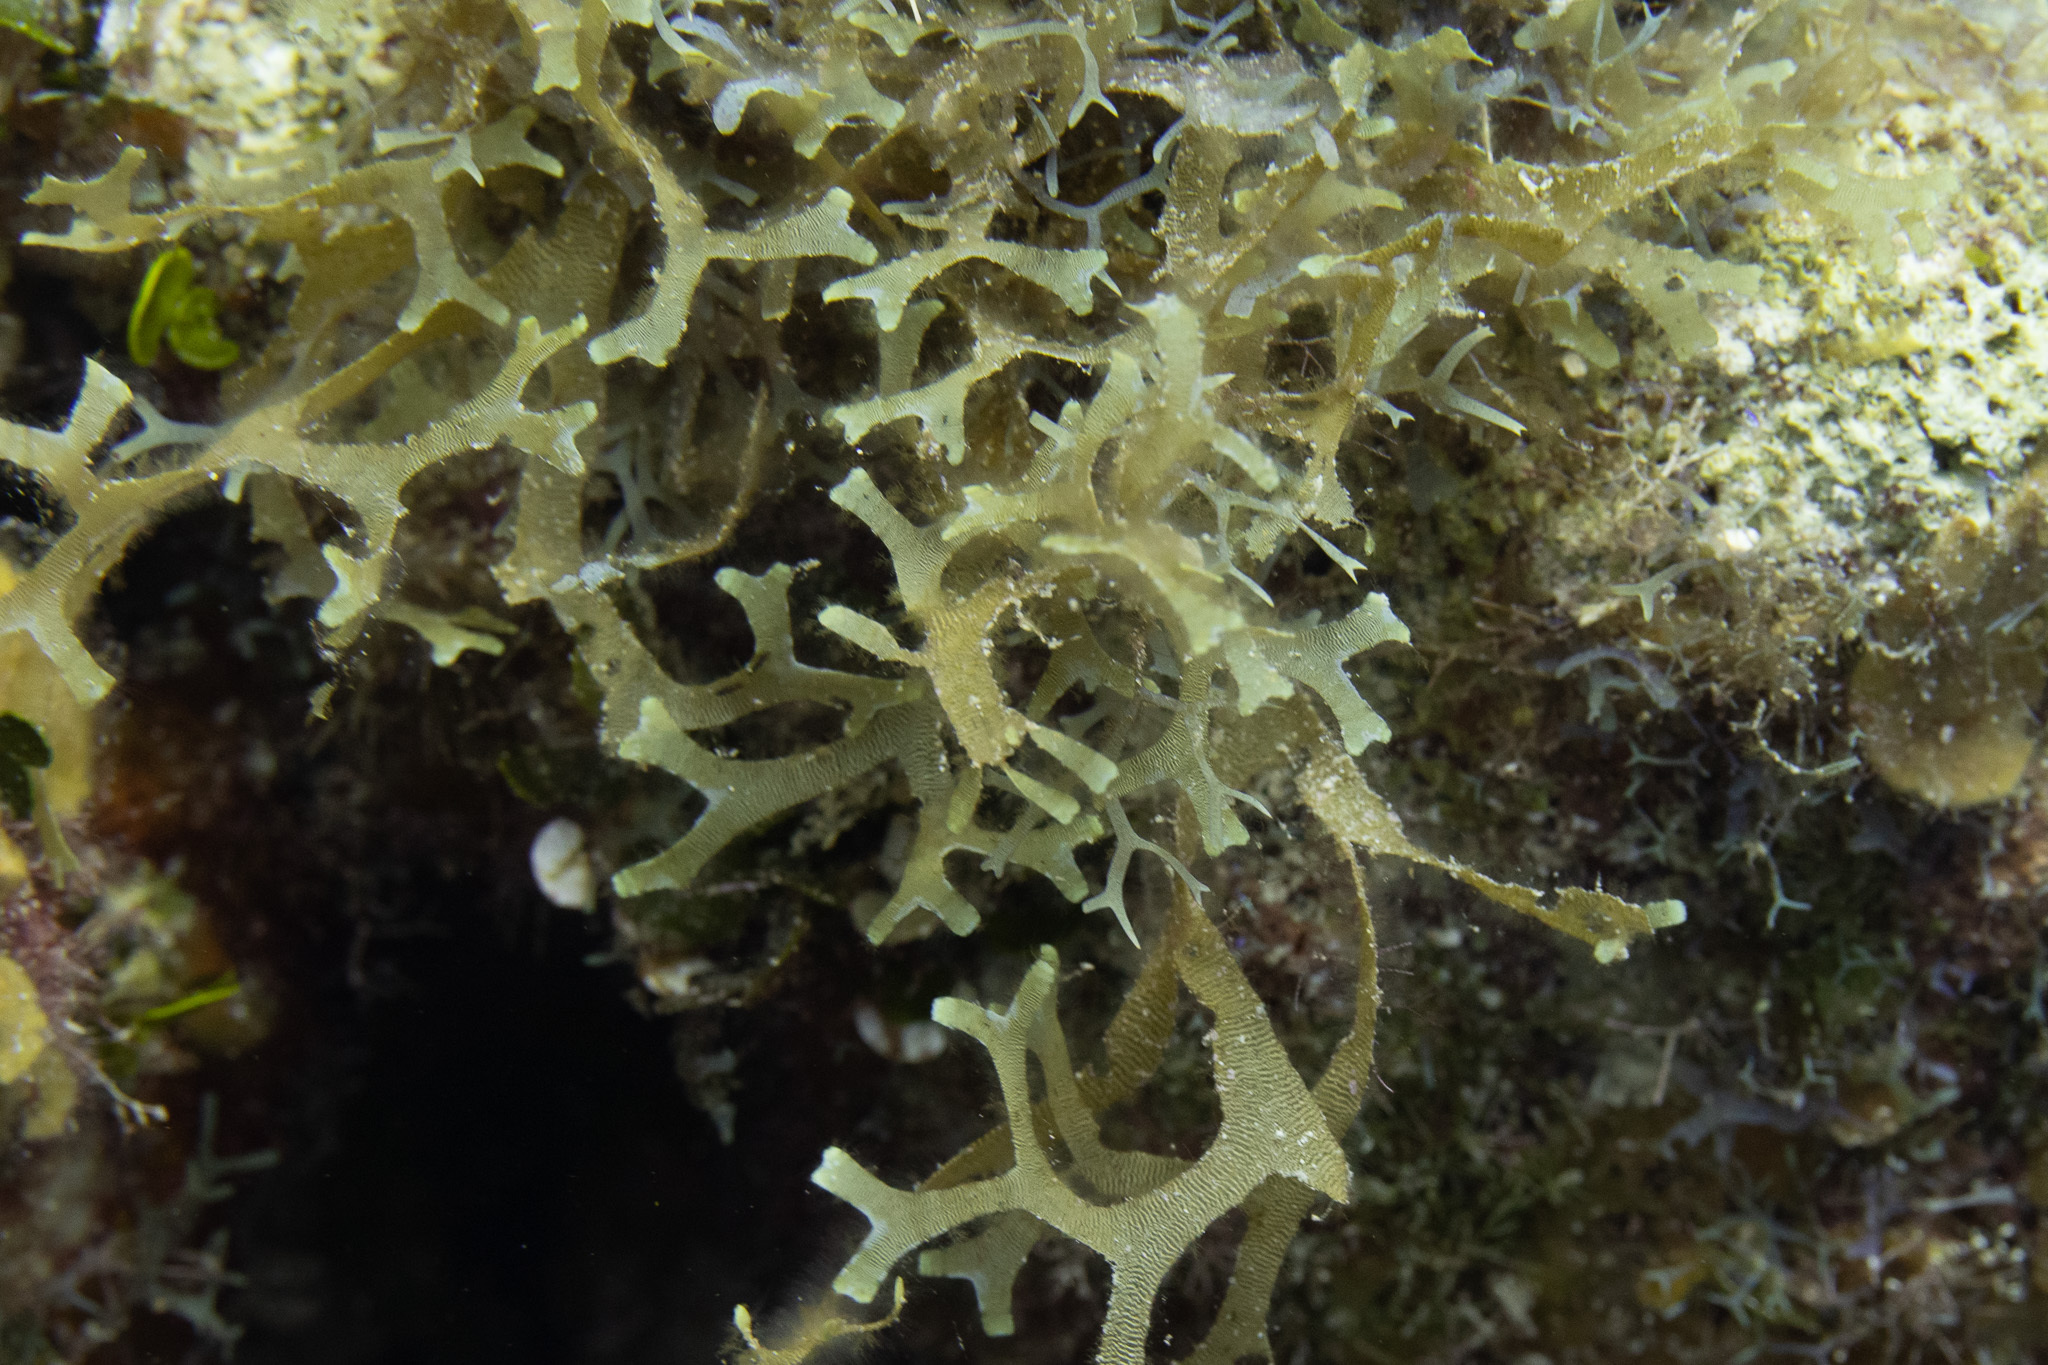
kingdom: Chromista
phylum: Ochrophyta
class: Phaeophyceae
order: Dictyotales
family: Dictyotaceae
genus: Canistrocarpus
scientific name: Canistrocarpus cervicornis
